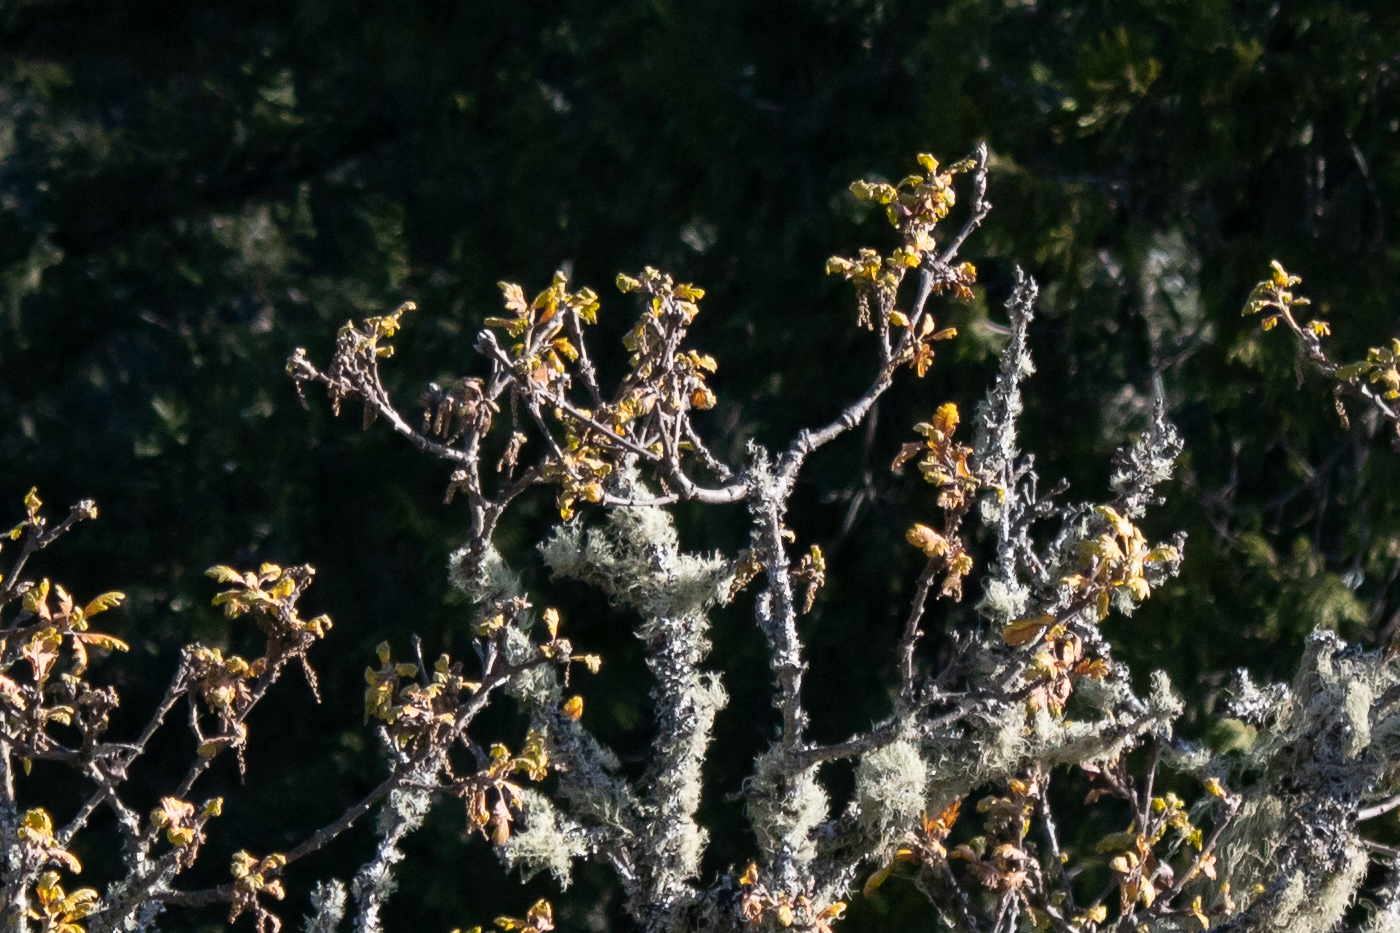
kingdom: Plantae
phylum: Tracheophyta
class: Magnoliopsida
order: Fagales
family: Fagaceae
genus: Quercus
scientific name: Quercus garryana
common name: Garry oak
